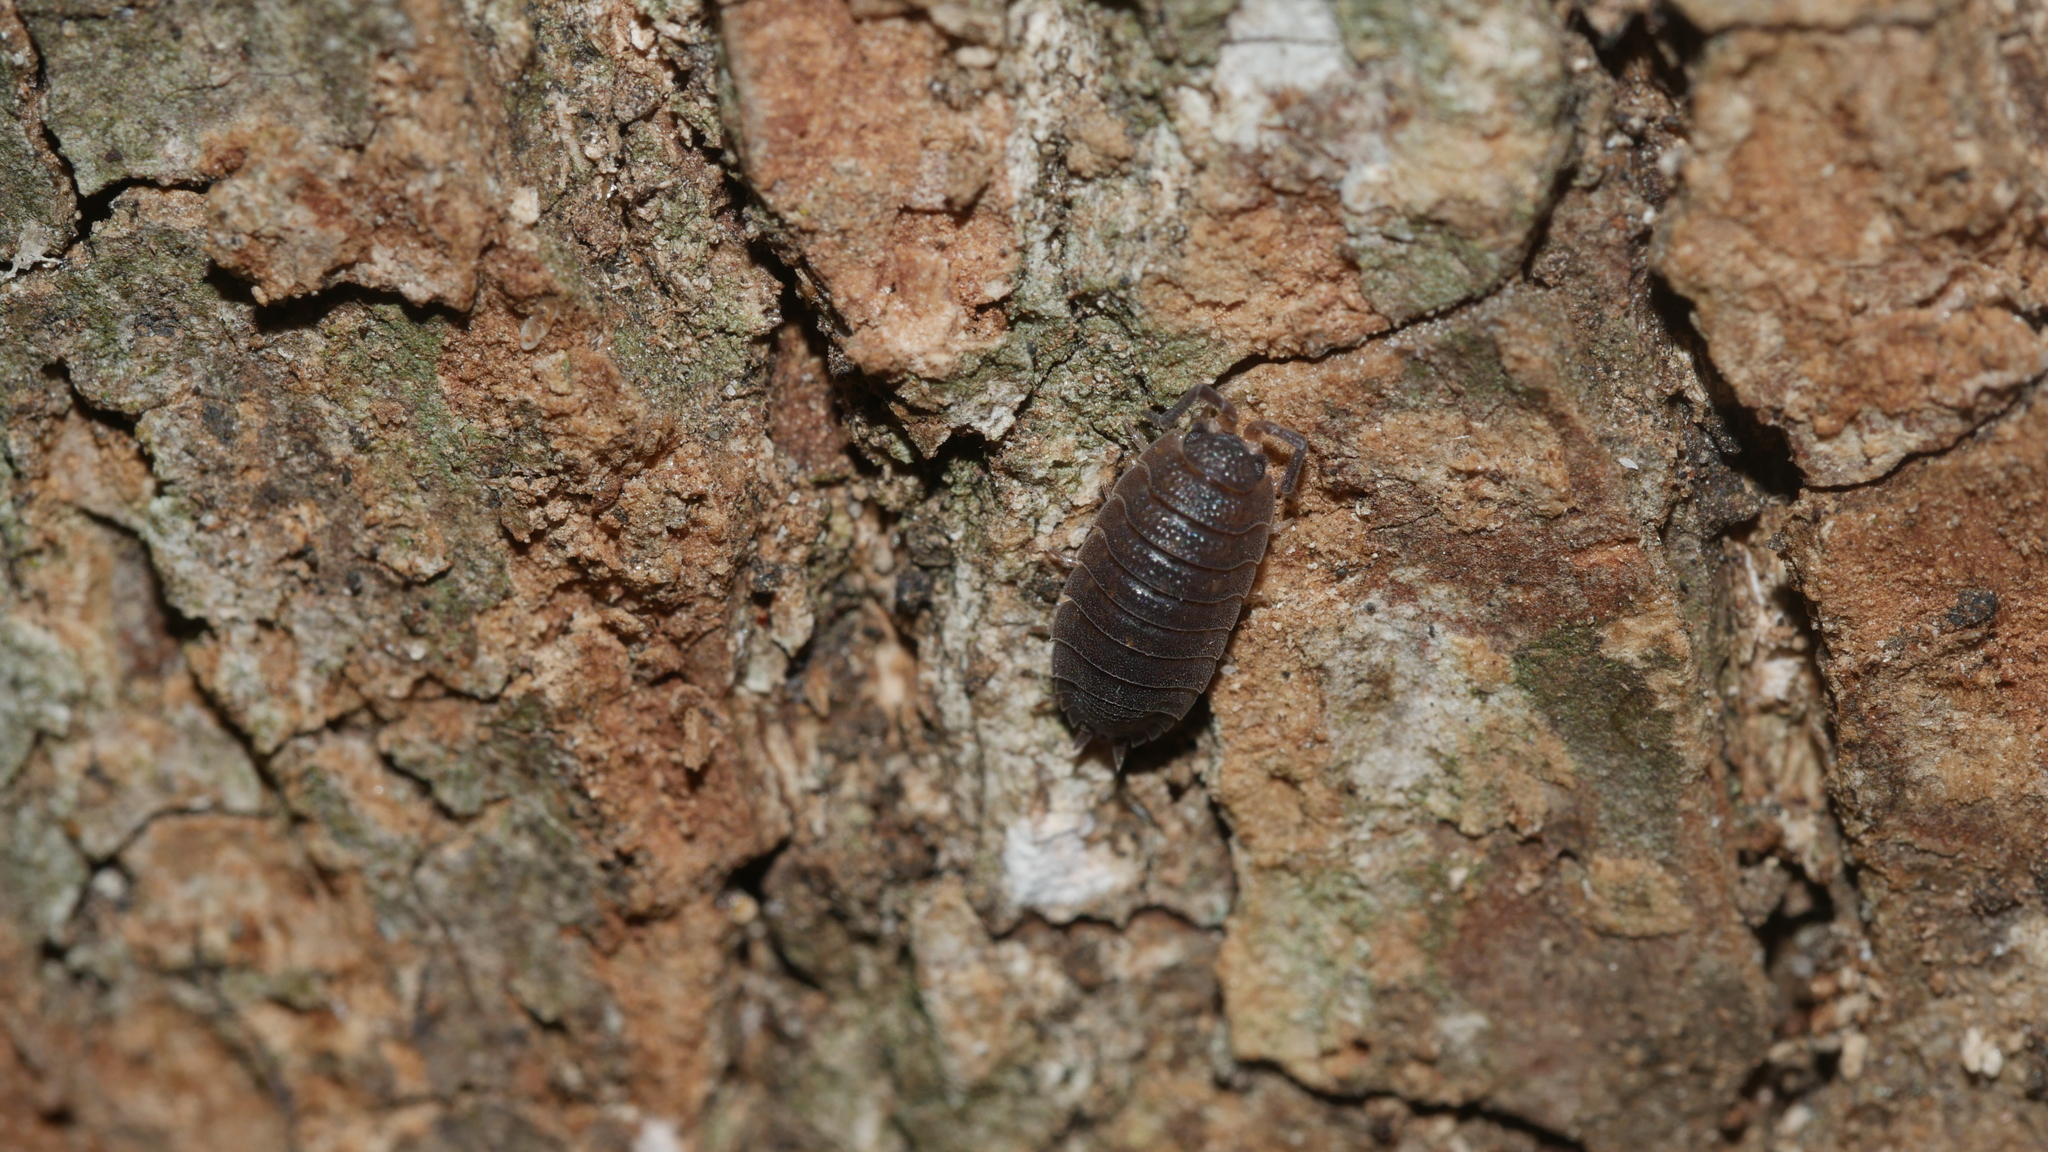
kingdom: Animalia
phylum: Arthropoda
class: Malacostraca
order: Isopoda
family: Porcellionidae
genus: Porcellio
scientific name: Porcellio scaber
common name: Common rough woodlouse
